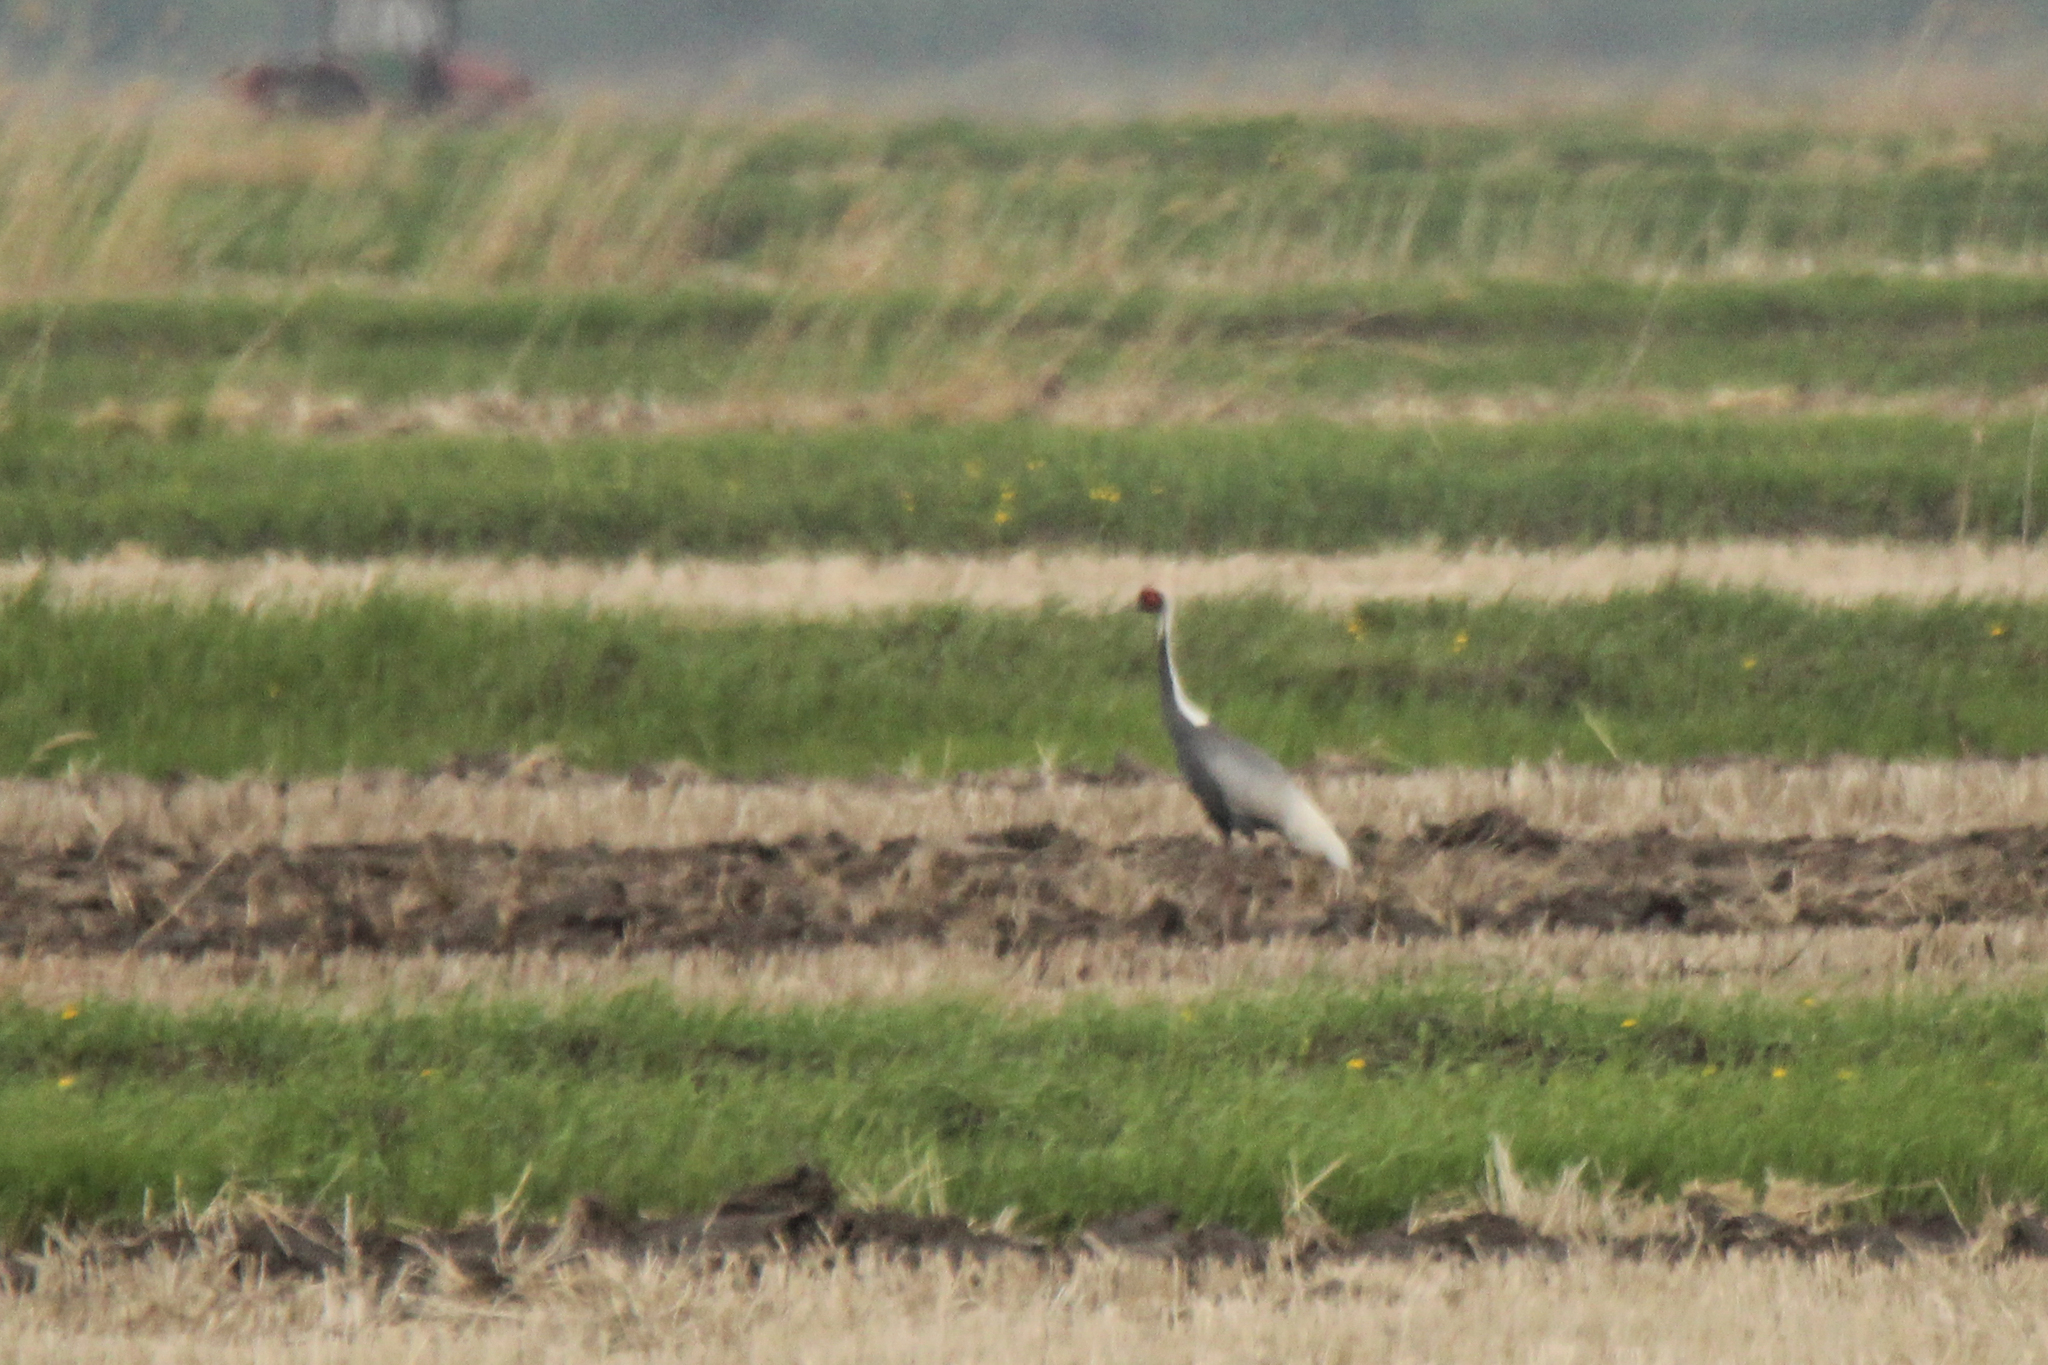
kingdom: Animalia
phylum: Chordata
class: Aves
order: Gruiformes
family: Gruidae
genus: Grus
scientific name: Grus vipio
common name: White-naped crane
